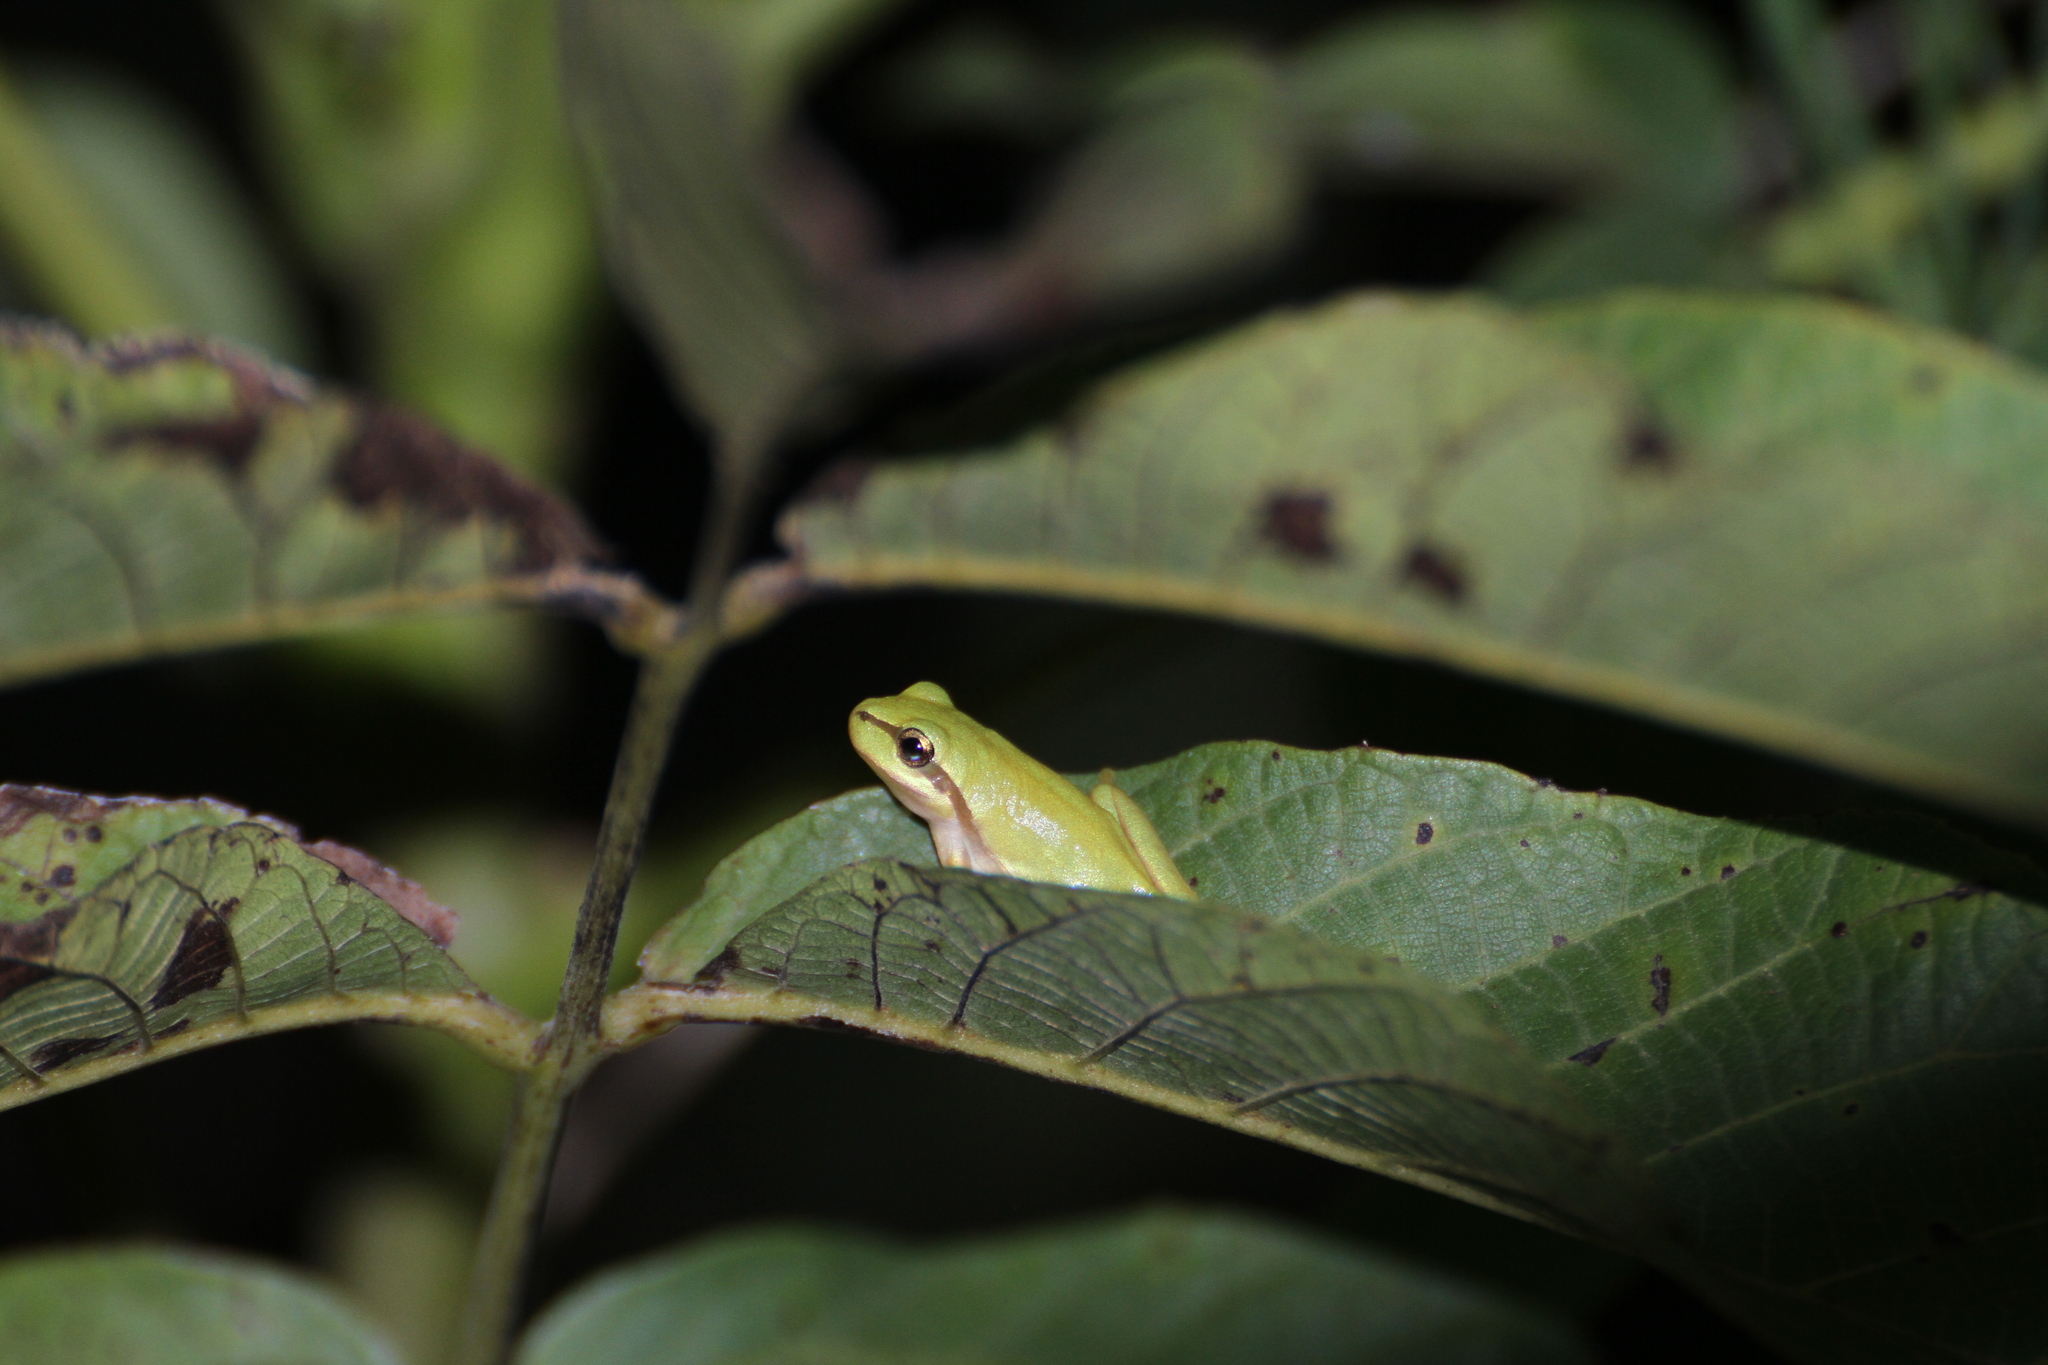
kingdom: Animalia
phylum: Chordata
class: Amphibia
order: Anura
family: Hylidae
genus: Hyla
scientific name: Hyla meridionalis
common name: Stripeless tree frog
